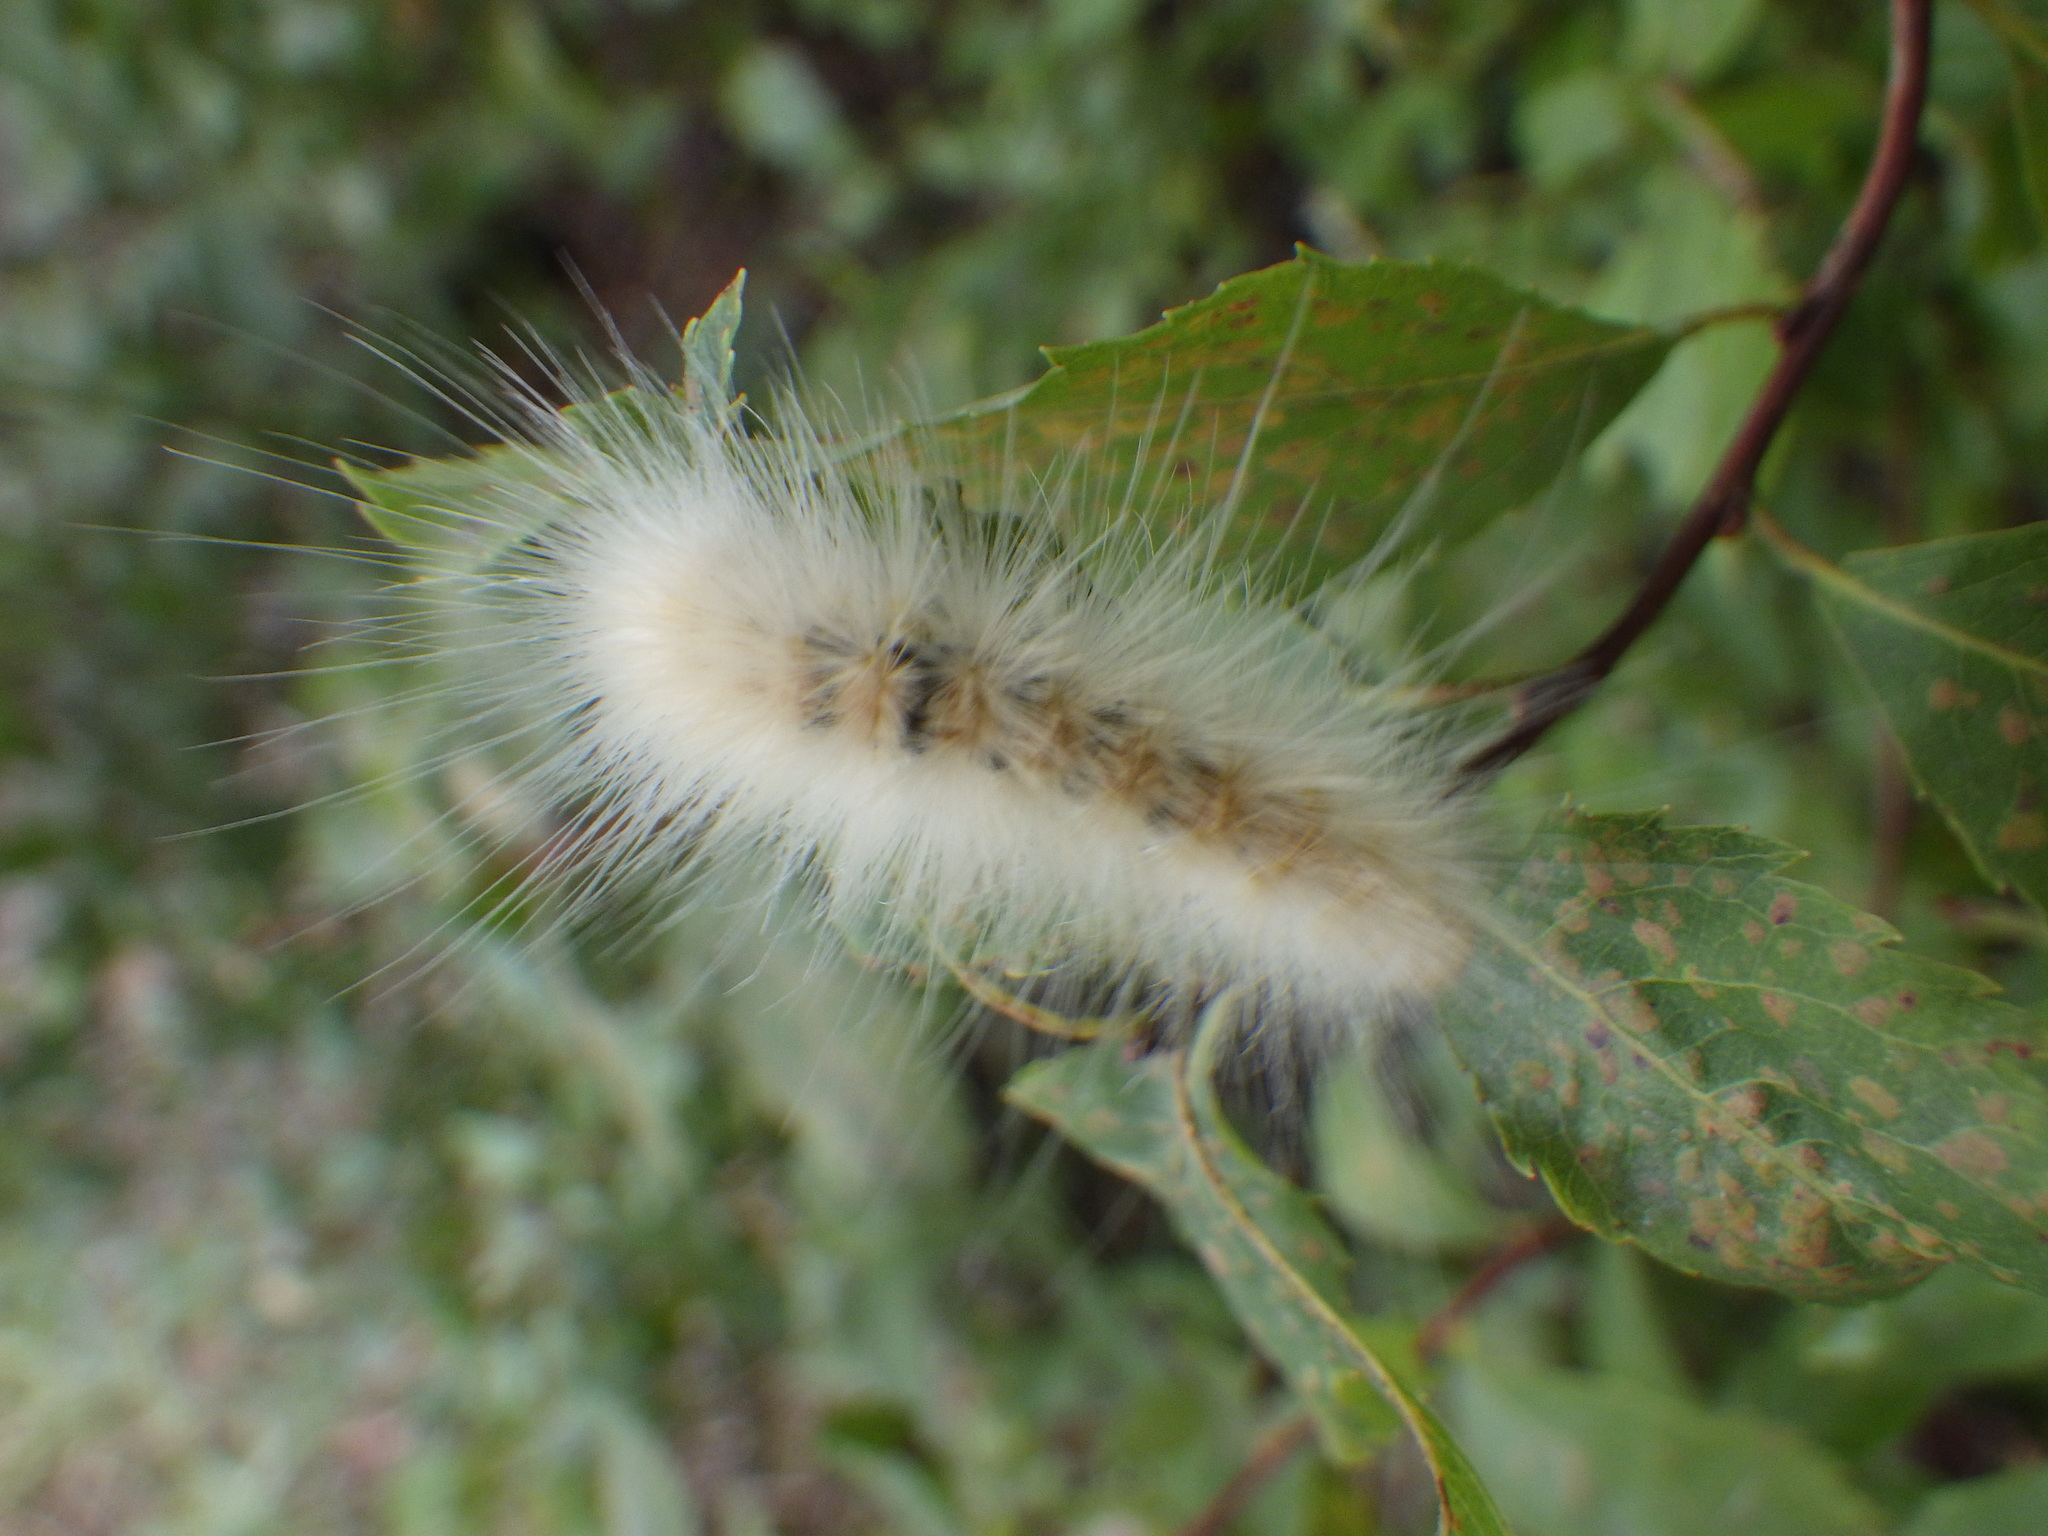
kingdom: Animalia
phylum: Arthropoda
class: Insecta
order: Lepidoptera
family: Erebidae
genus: Spilosoma
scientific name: Spilosoma virginica
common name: Virginia tiger moth
